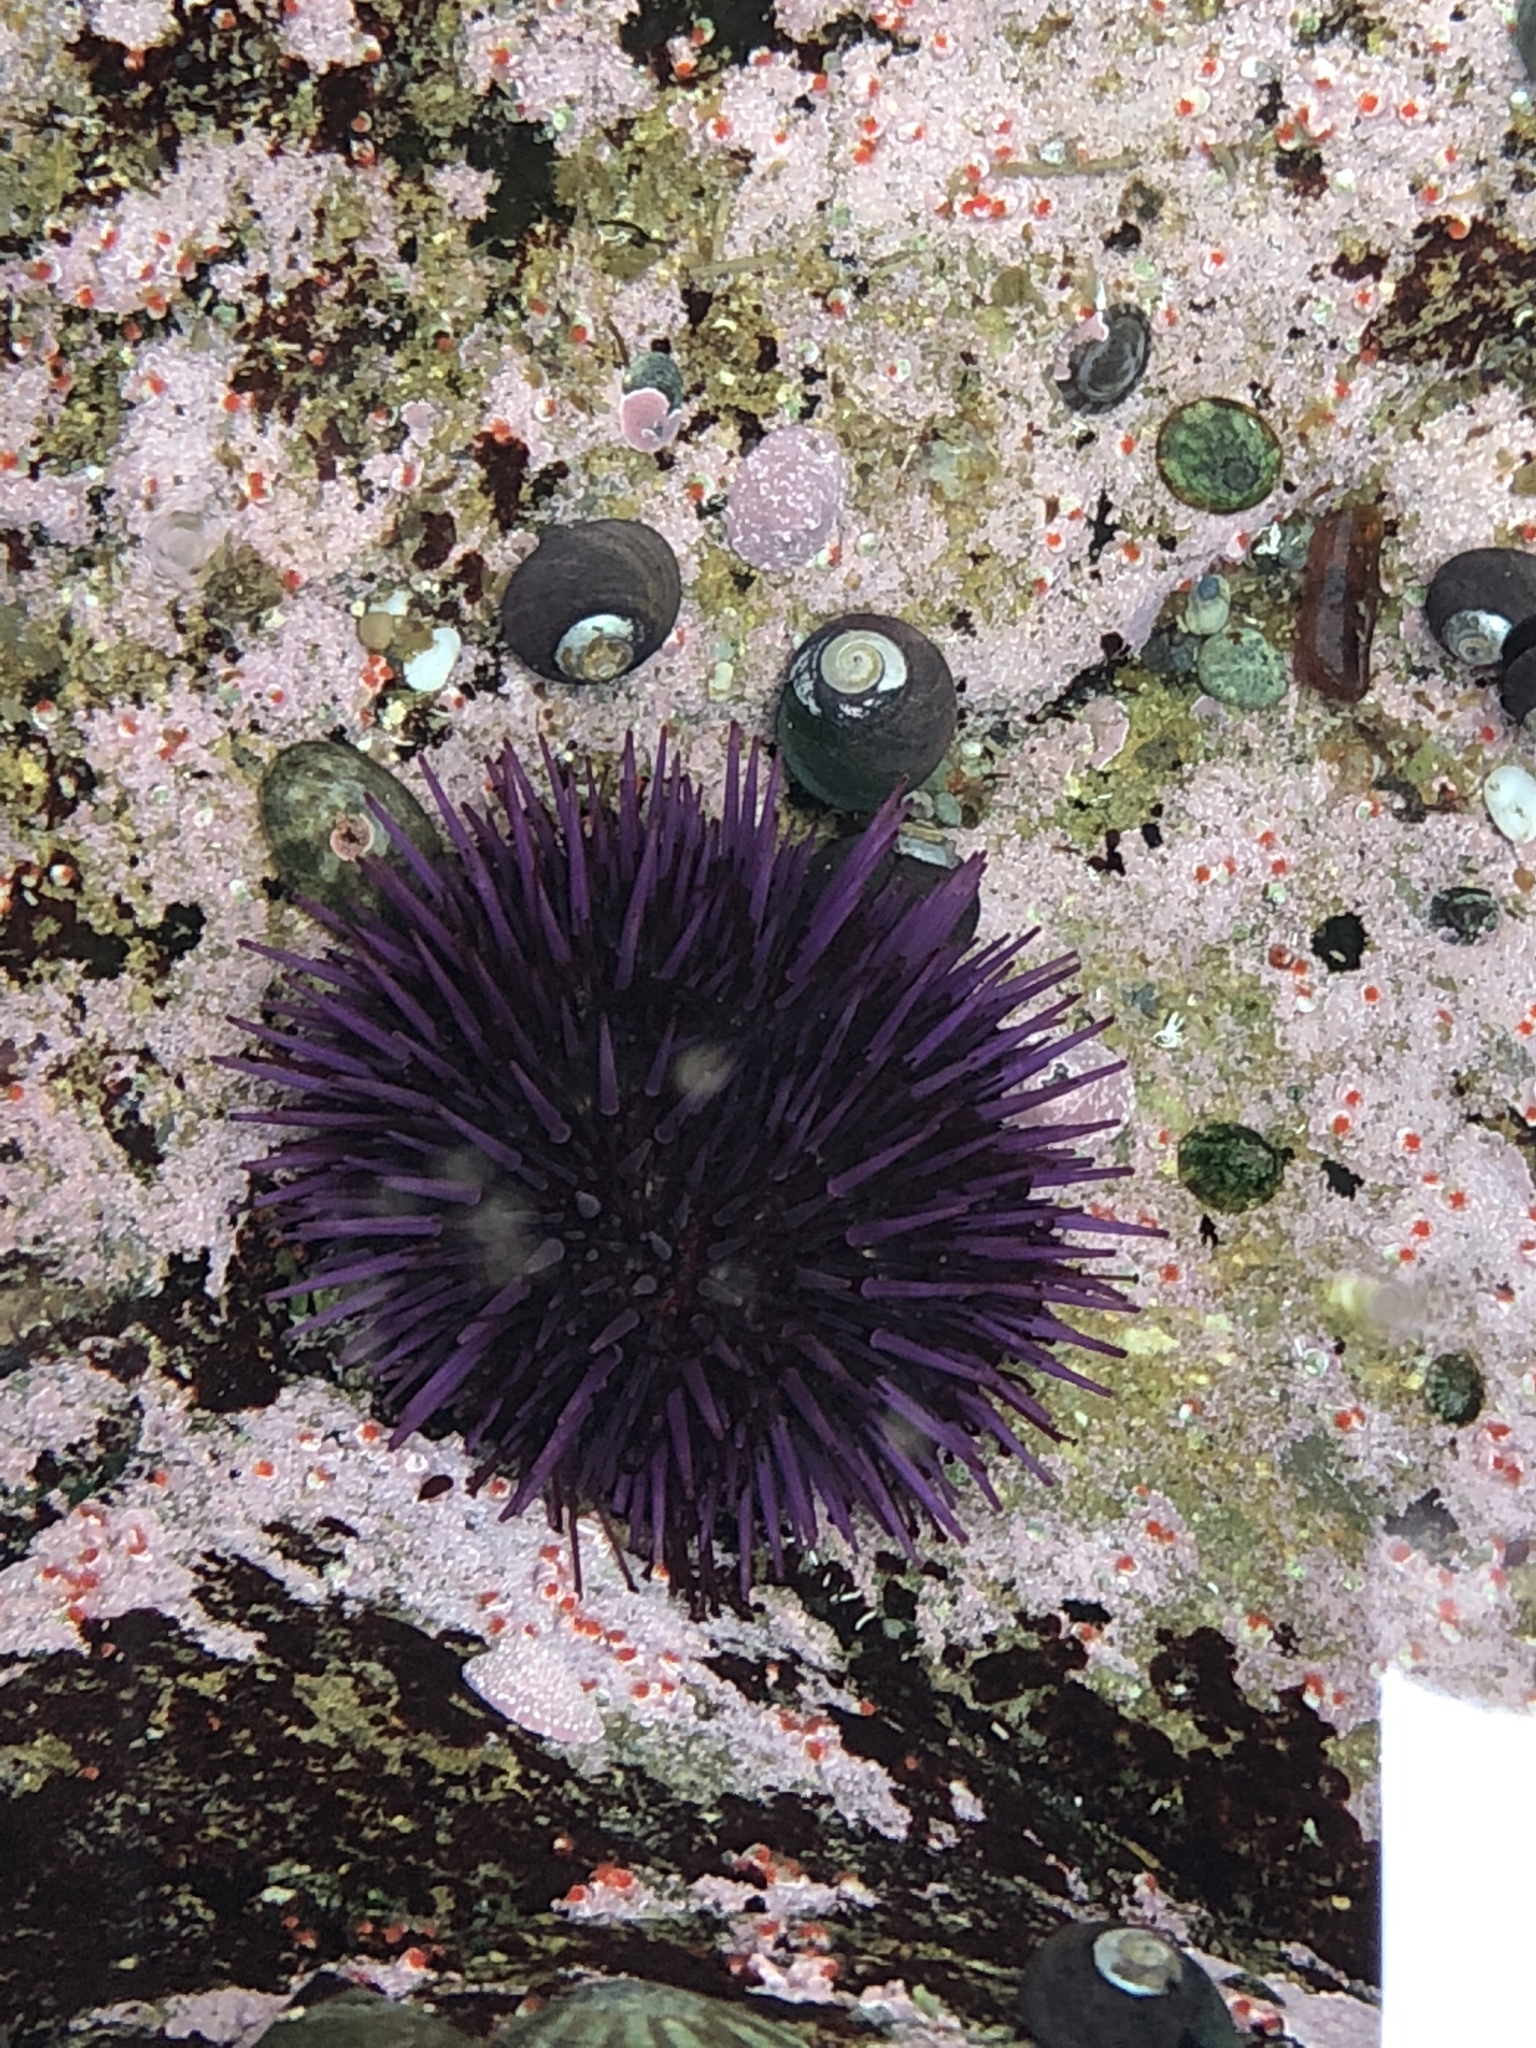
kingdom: Animalia
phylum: Echinodermata
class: Echinoidea
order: Camarodonta
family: Strongylocentrotidae
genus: Strongylocentrotus
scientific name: Strongylocentrotus purpuratus
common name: Purple sea urchin
